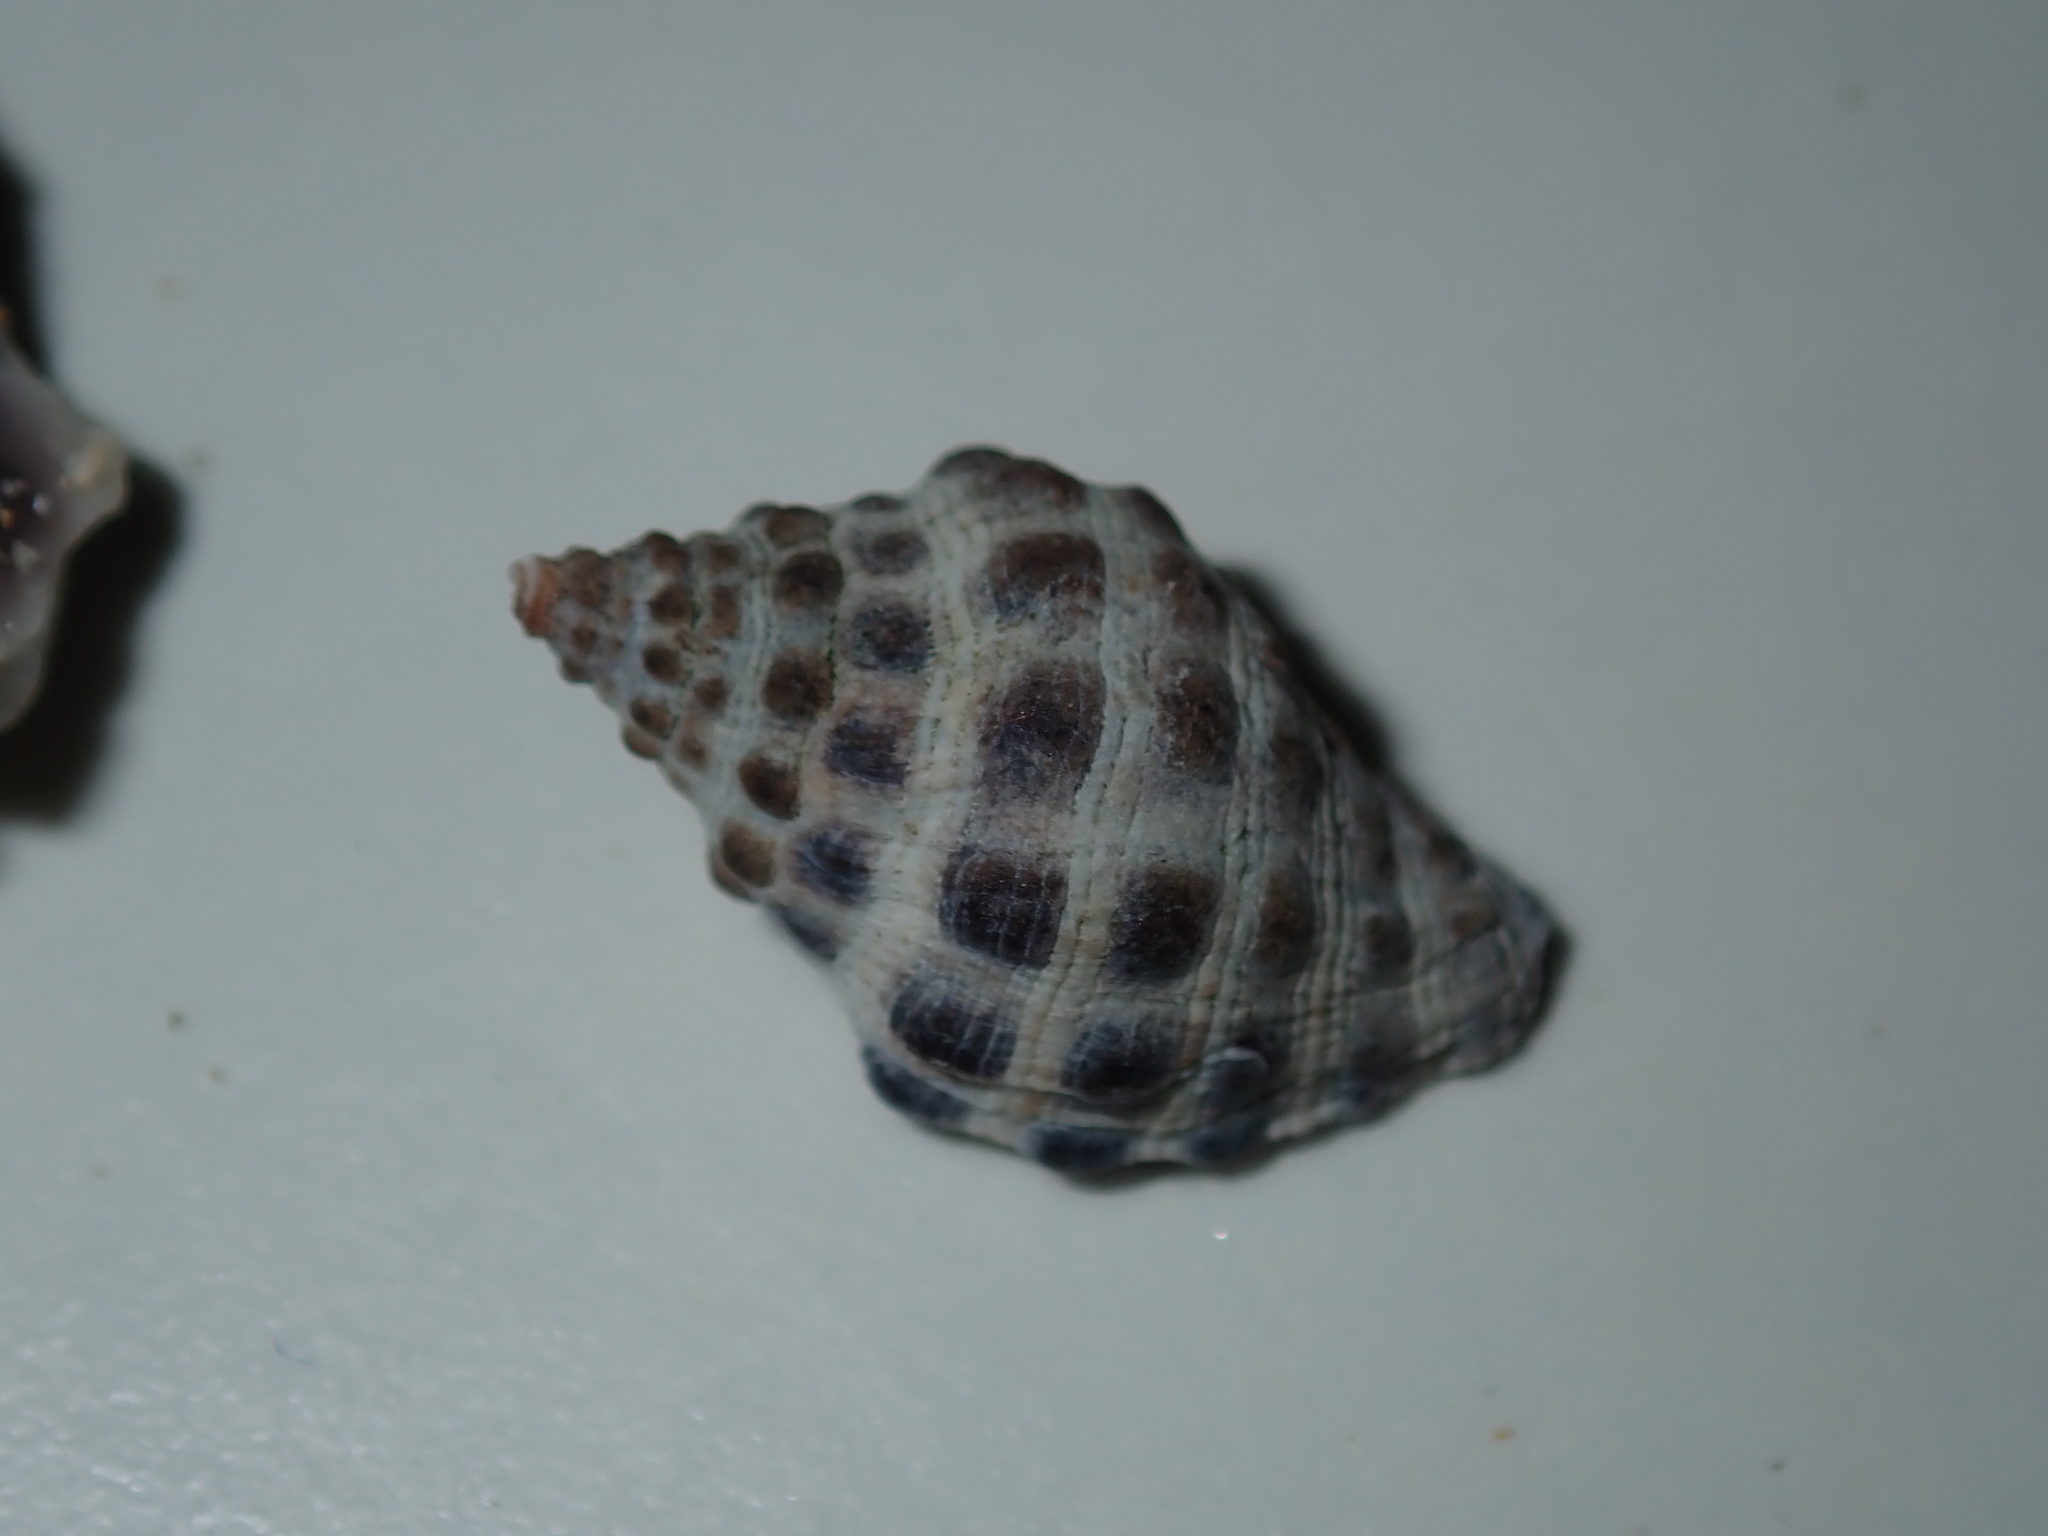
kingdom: Animalia
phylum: Mollusca
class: Gastropoda
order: Neogastropoda
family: Muricidae
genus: Tenguella
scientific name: Tenguella marginalba
